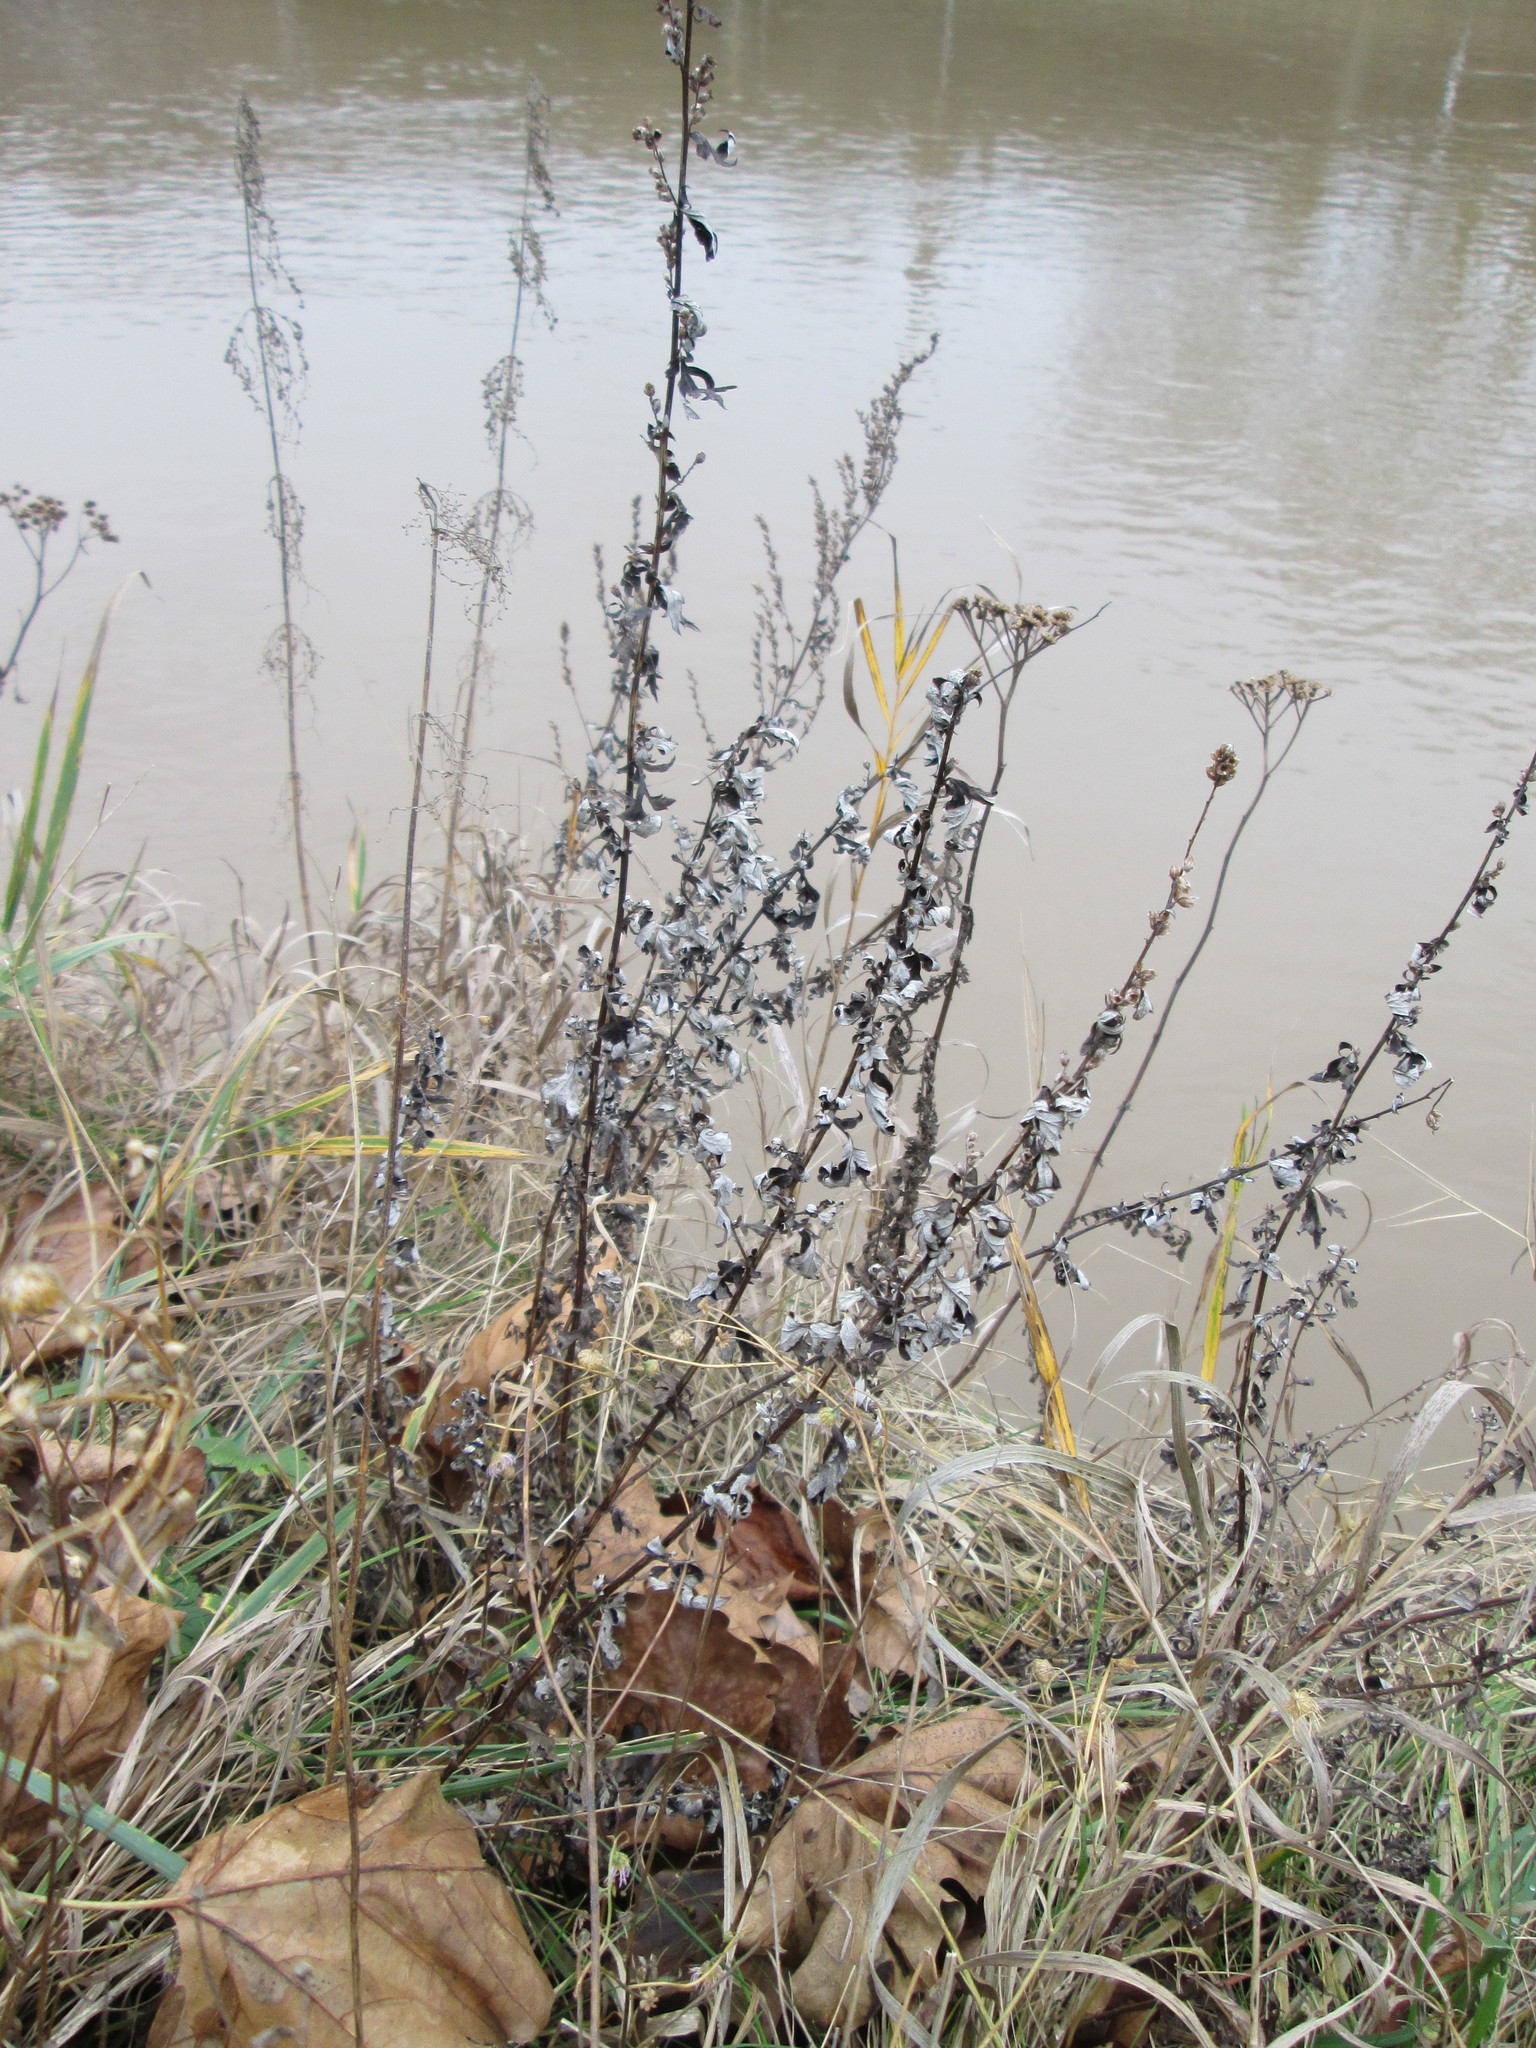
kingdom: Plantae
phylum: Tracheophyta
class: Magnoliopsida
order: Asterales
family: Asteraceae
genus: Artemisia
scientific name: Artemisia vulgaris
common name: Mugwort
